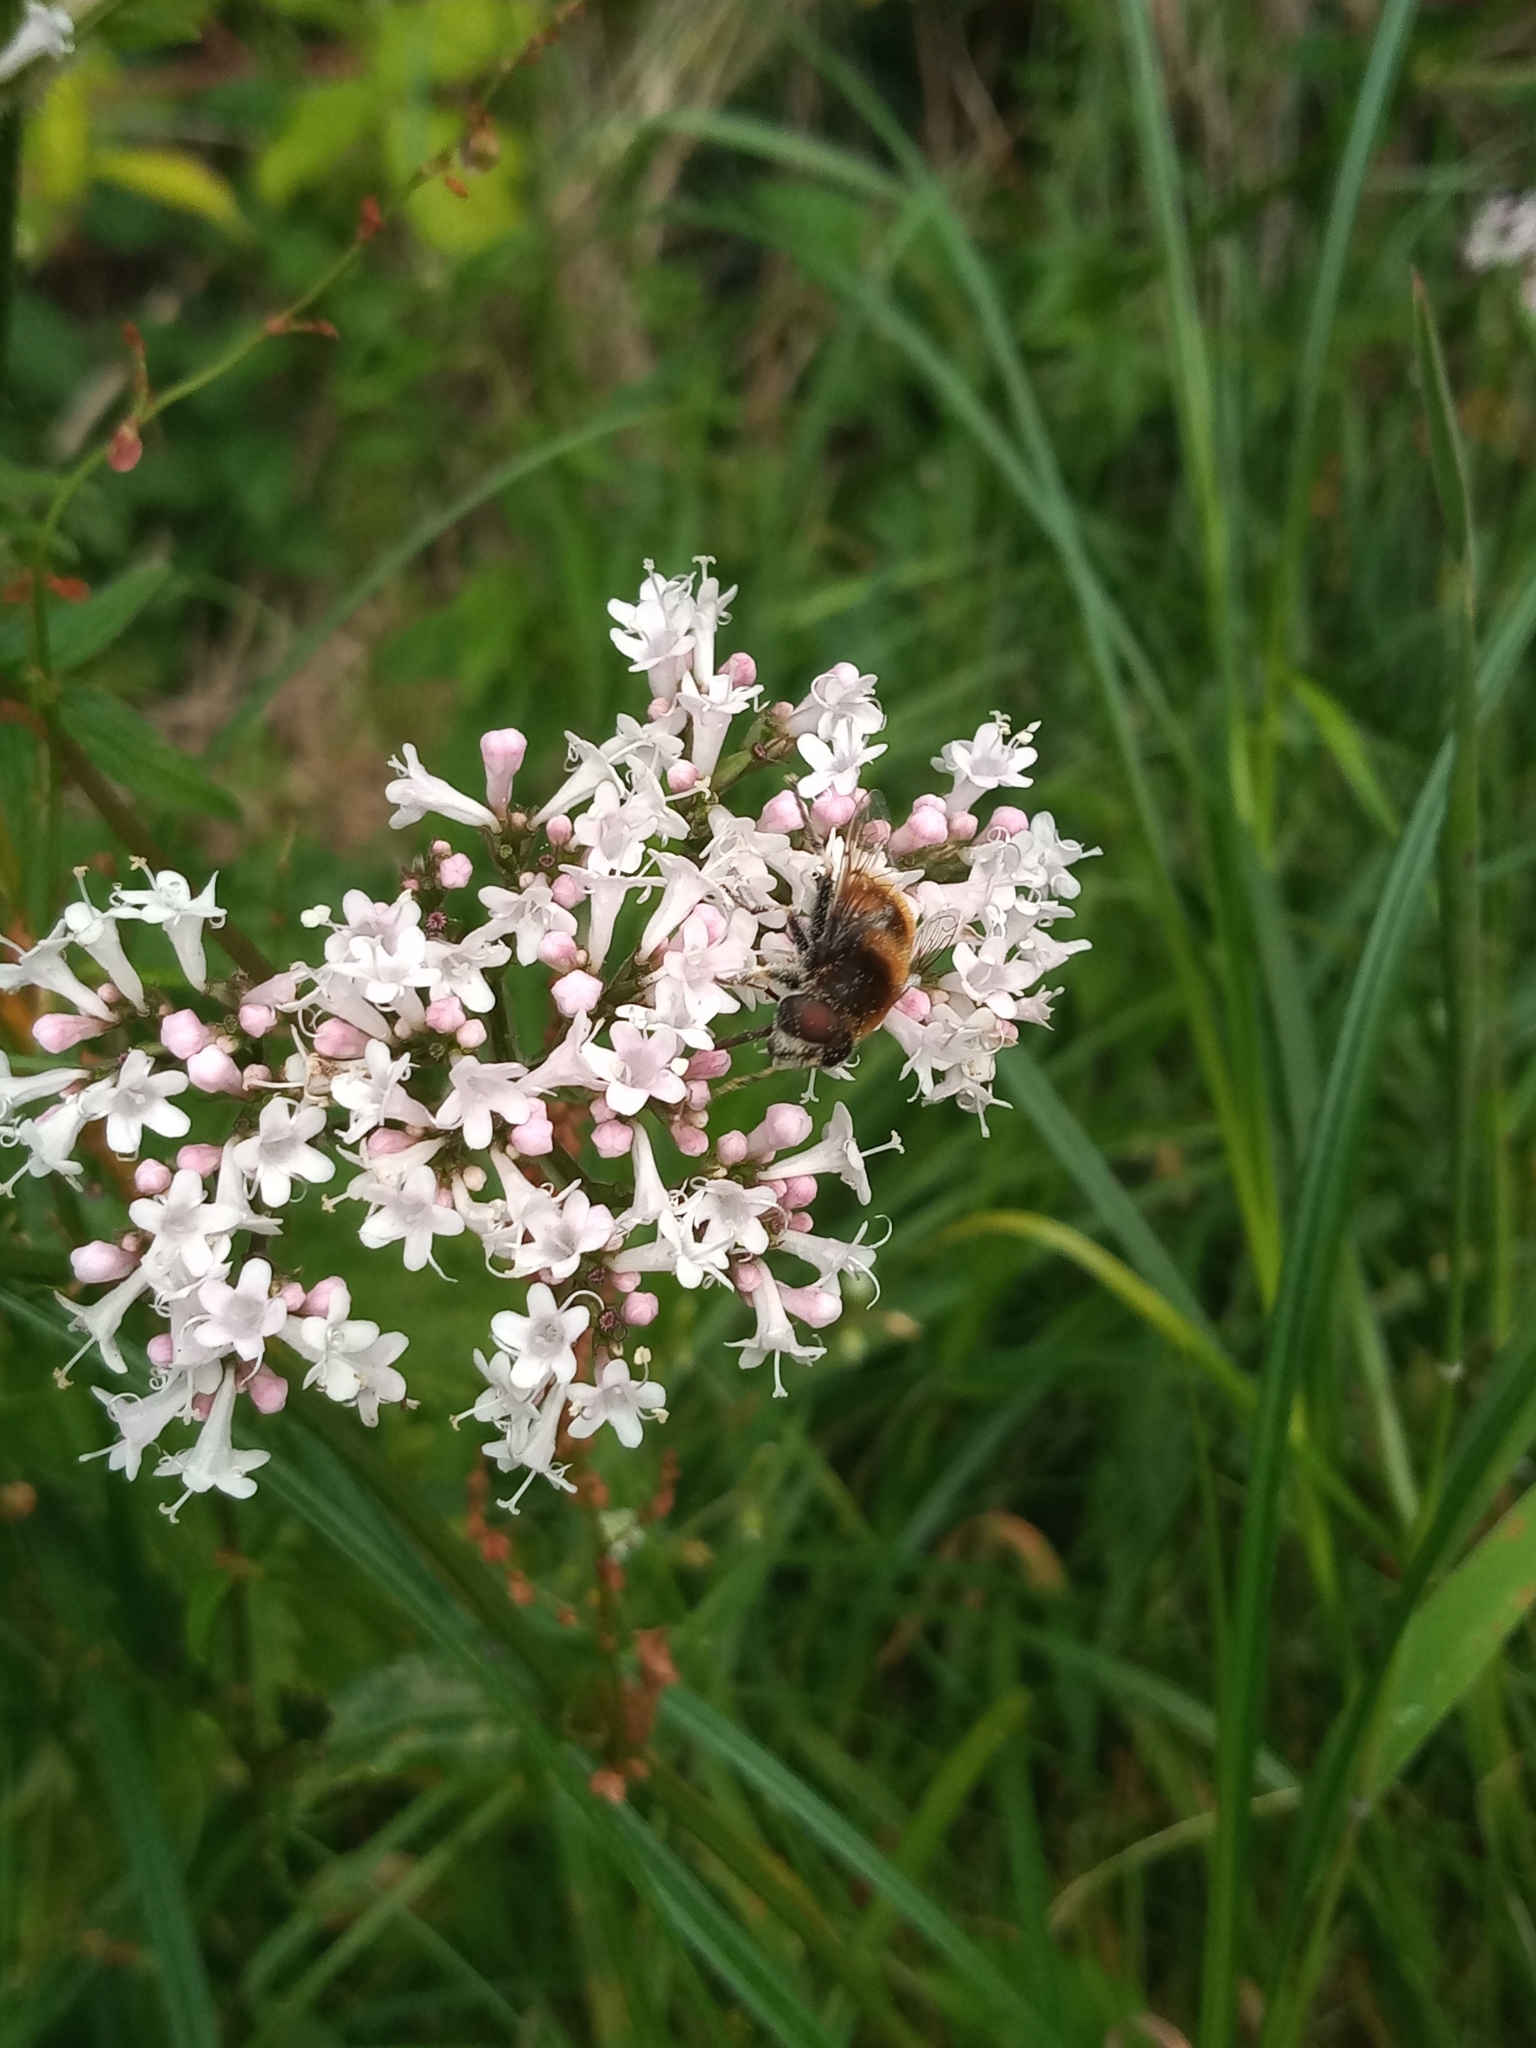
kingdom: Animalia
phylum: Arthropoda
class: Insecta
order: Diptera
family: Syrphidae
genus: Eristalis
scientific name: Eristalis intricaria
